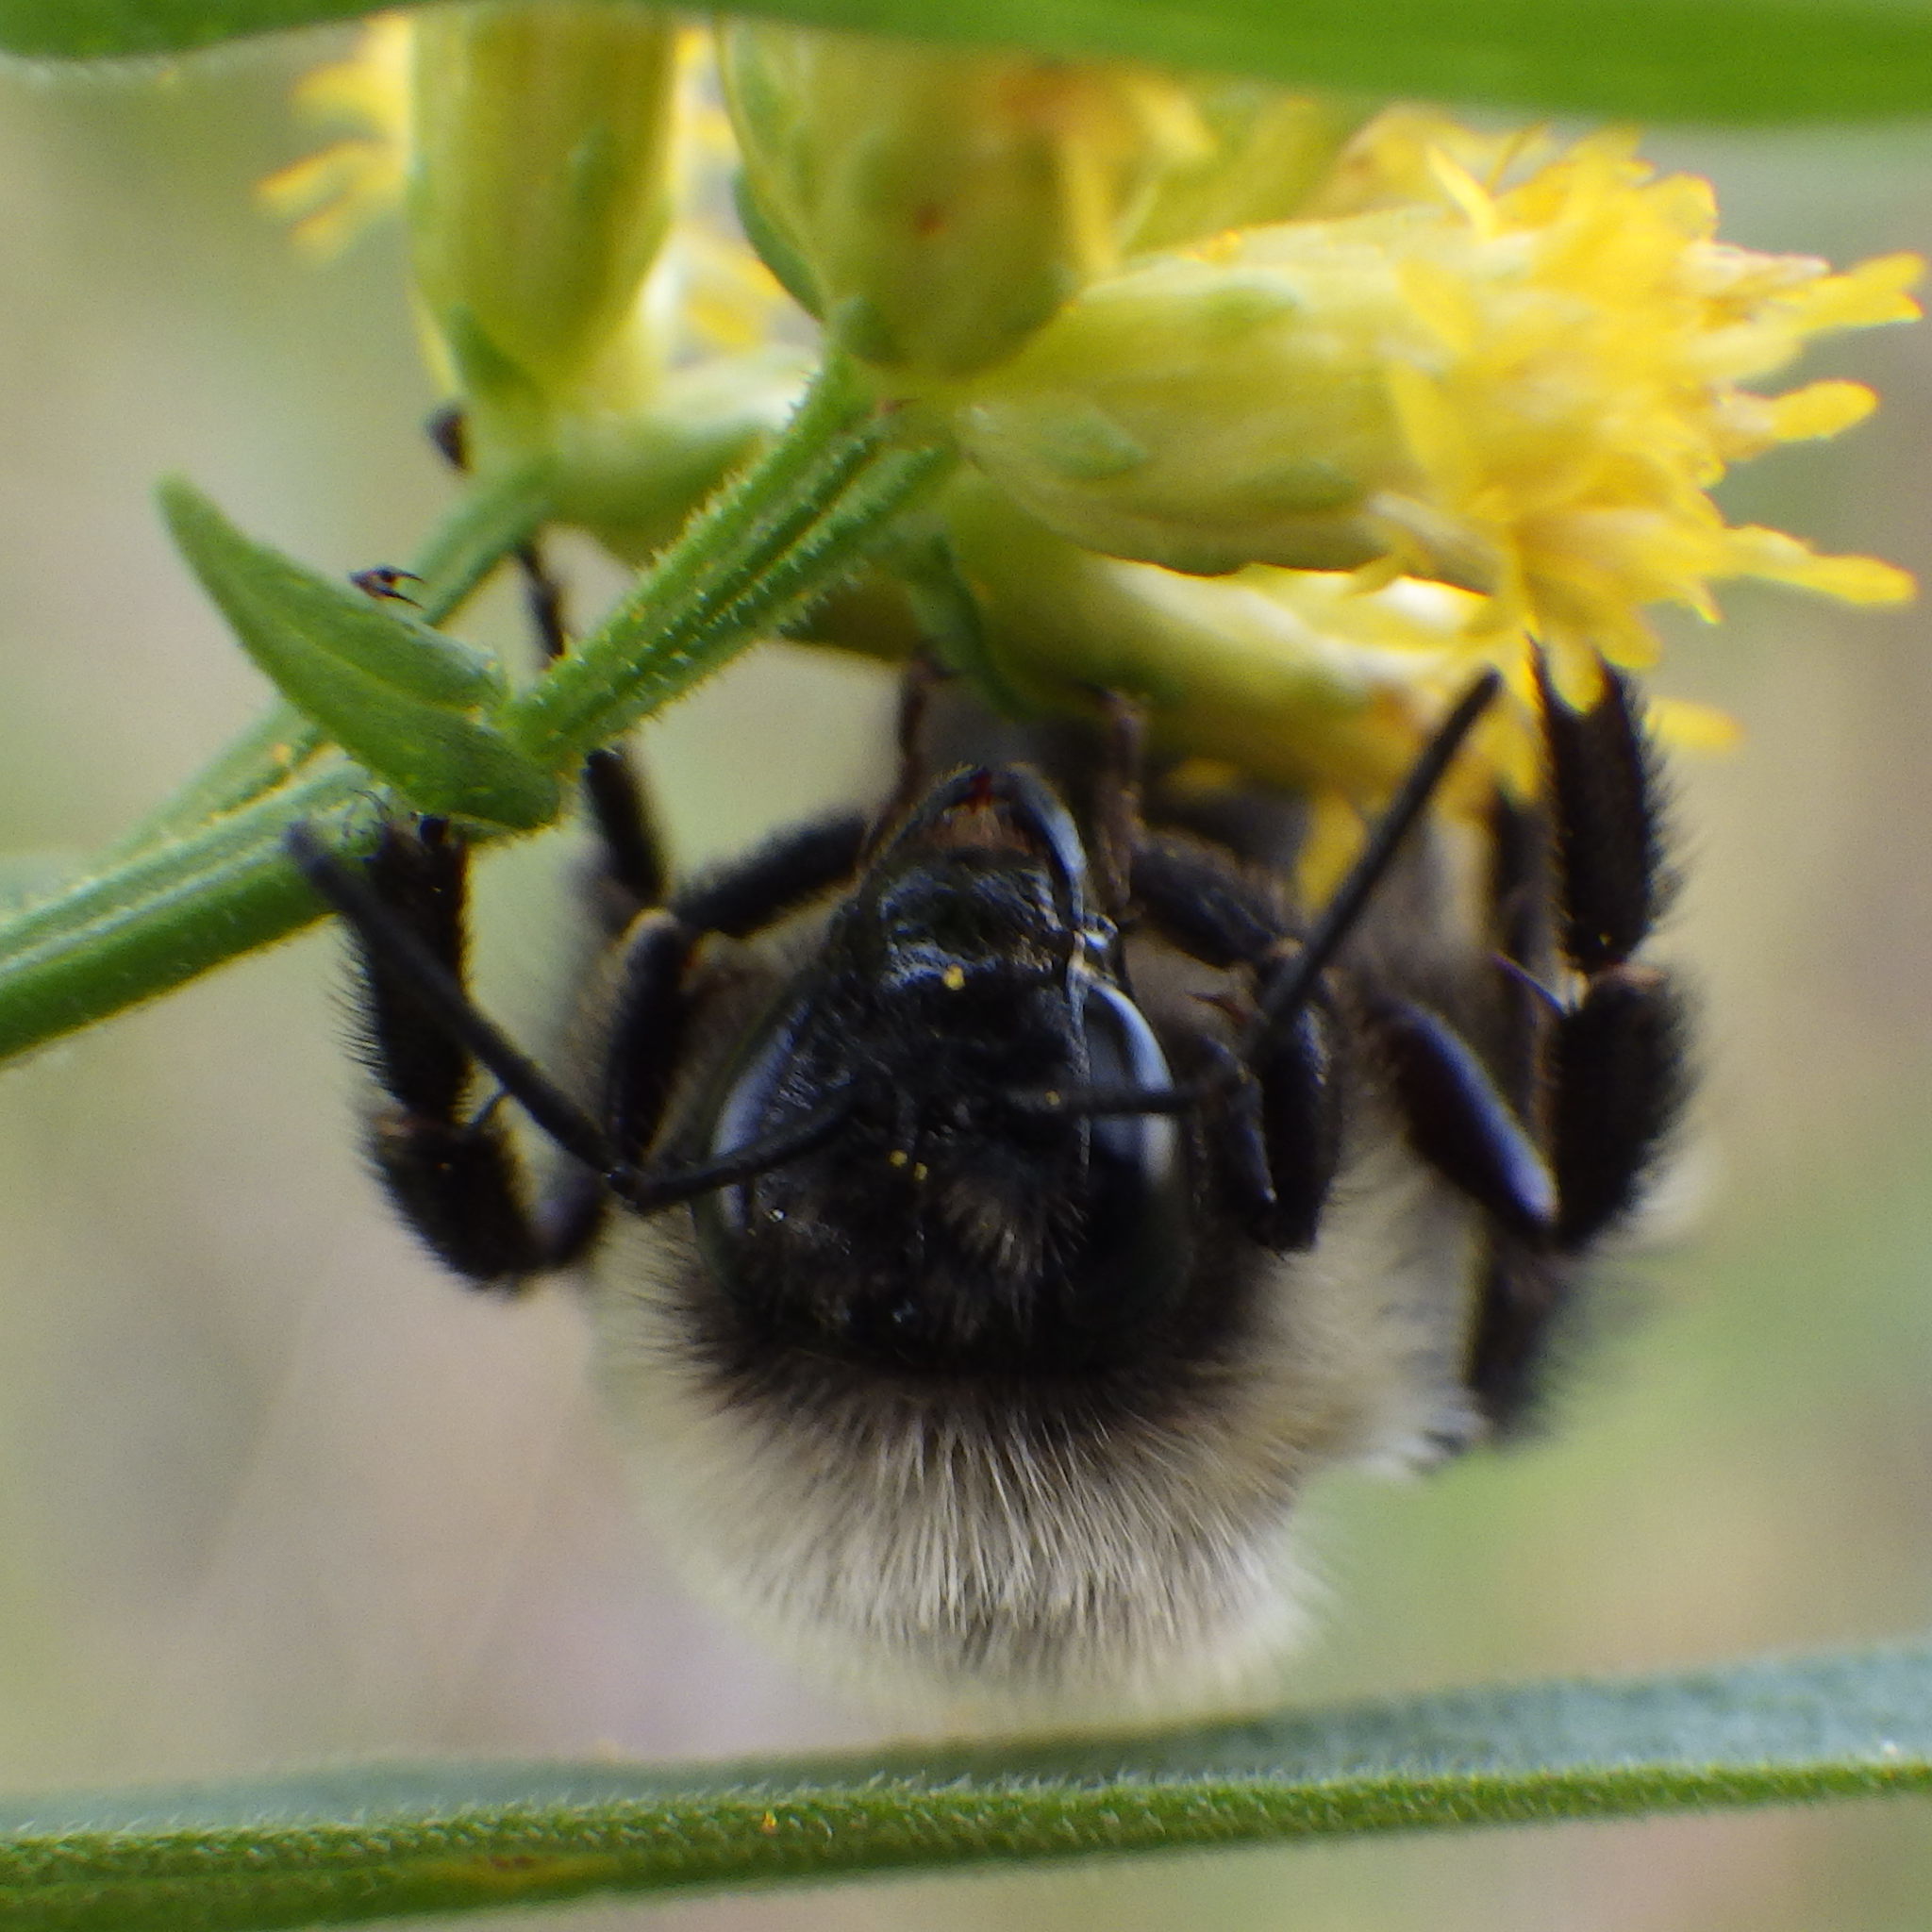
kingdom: Animalia
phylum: Arthropoda
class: Insecta
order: Hymenoptera
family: Apidae
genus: Bombus
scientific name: Bombus impatiens
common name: Common eastern bumble bee
